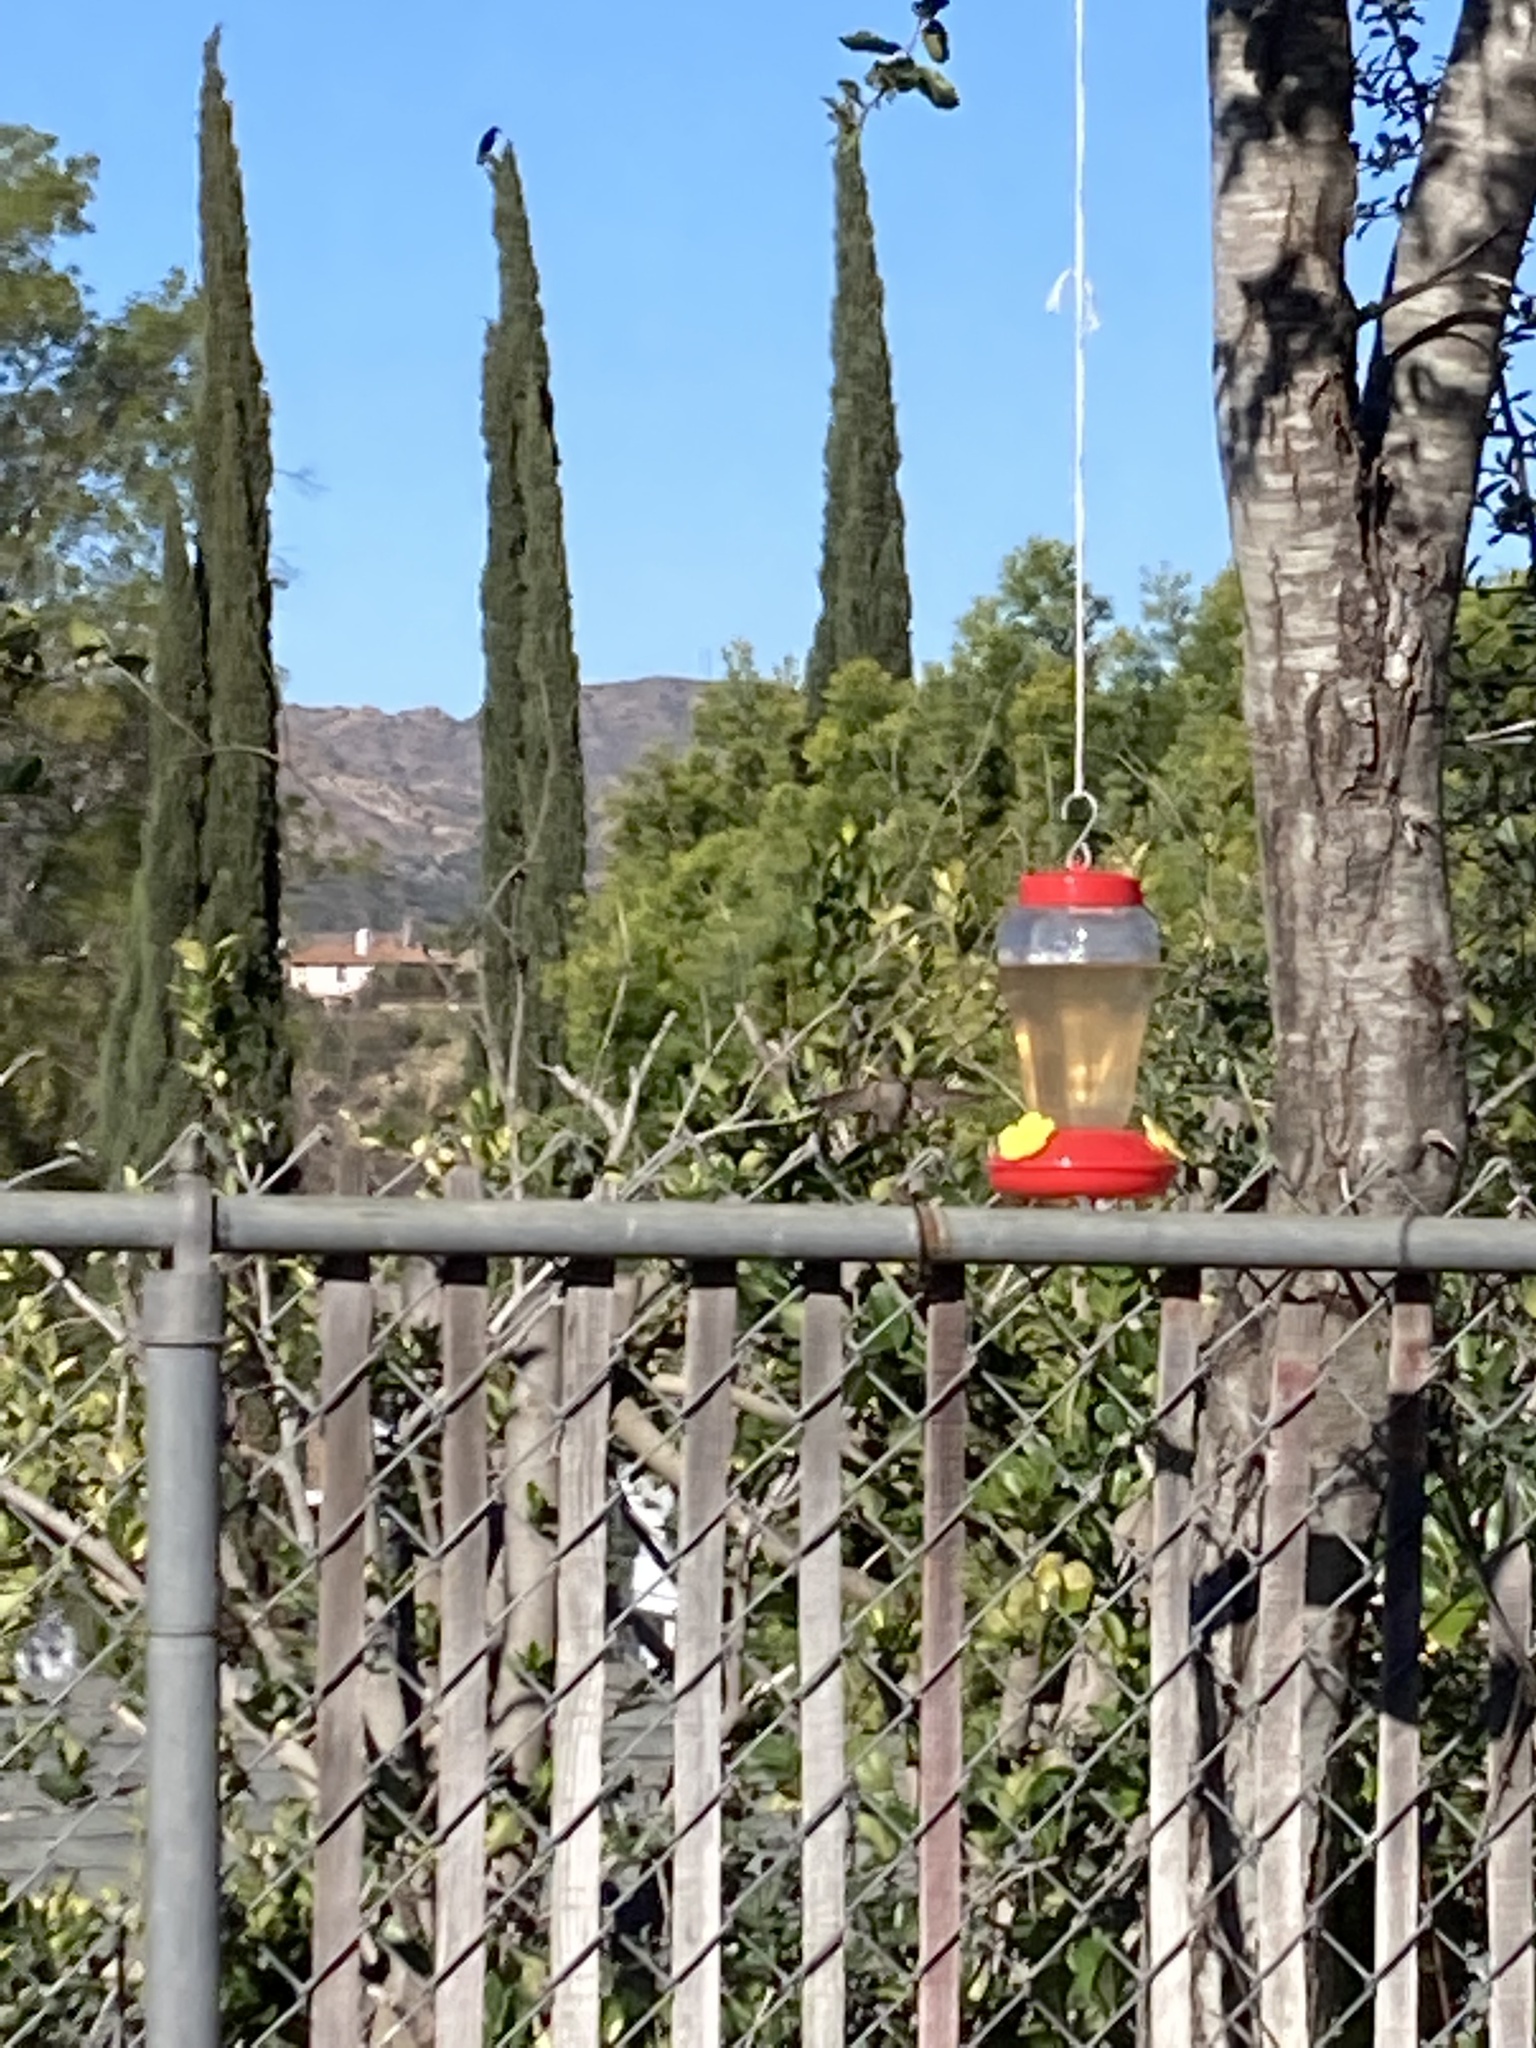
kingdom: Animalia
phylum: Chordata
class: Aves
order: Apodiformes
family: Trochilidae
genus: Calypte
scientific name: Calypte
